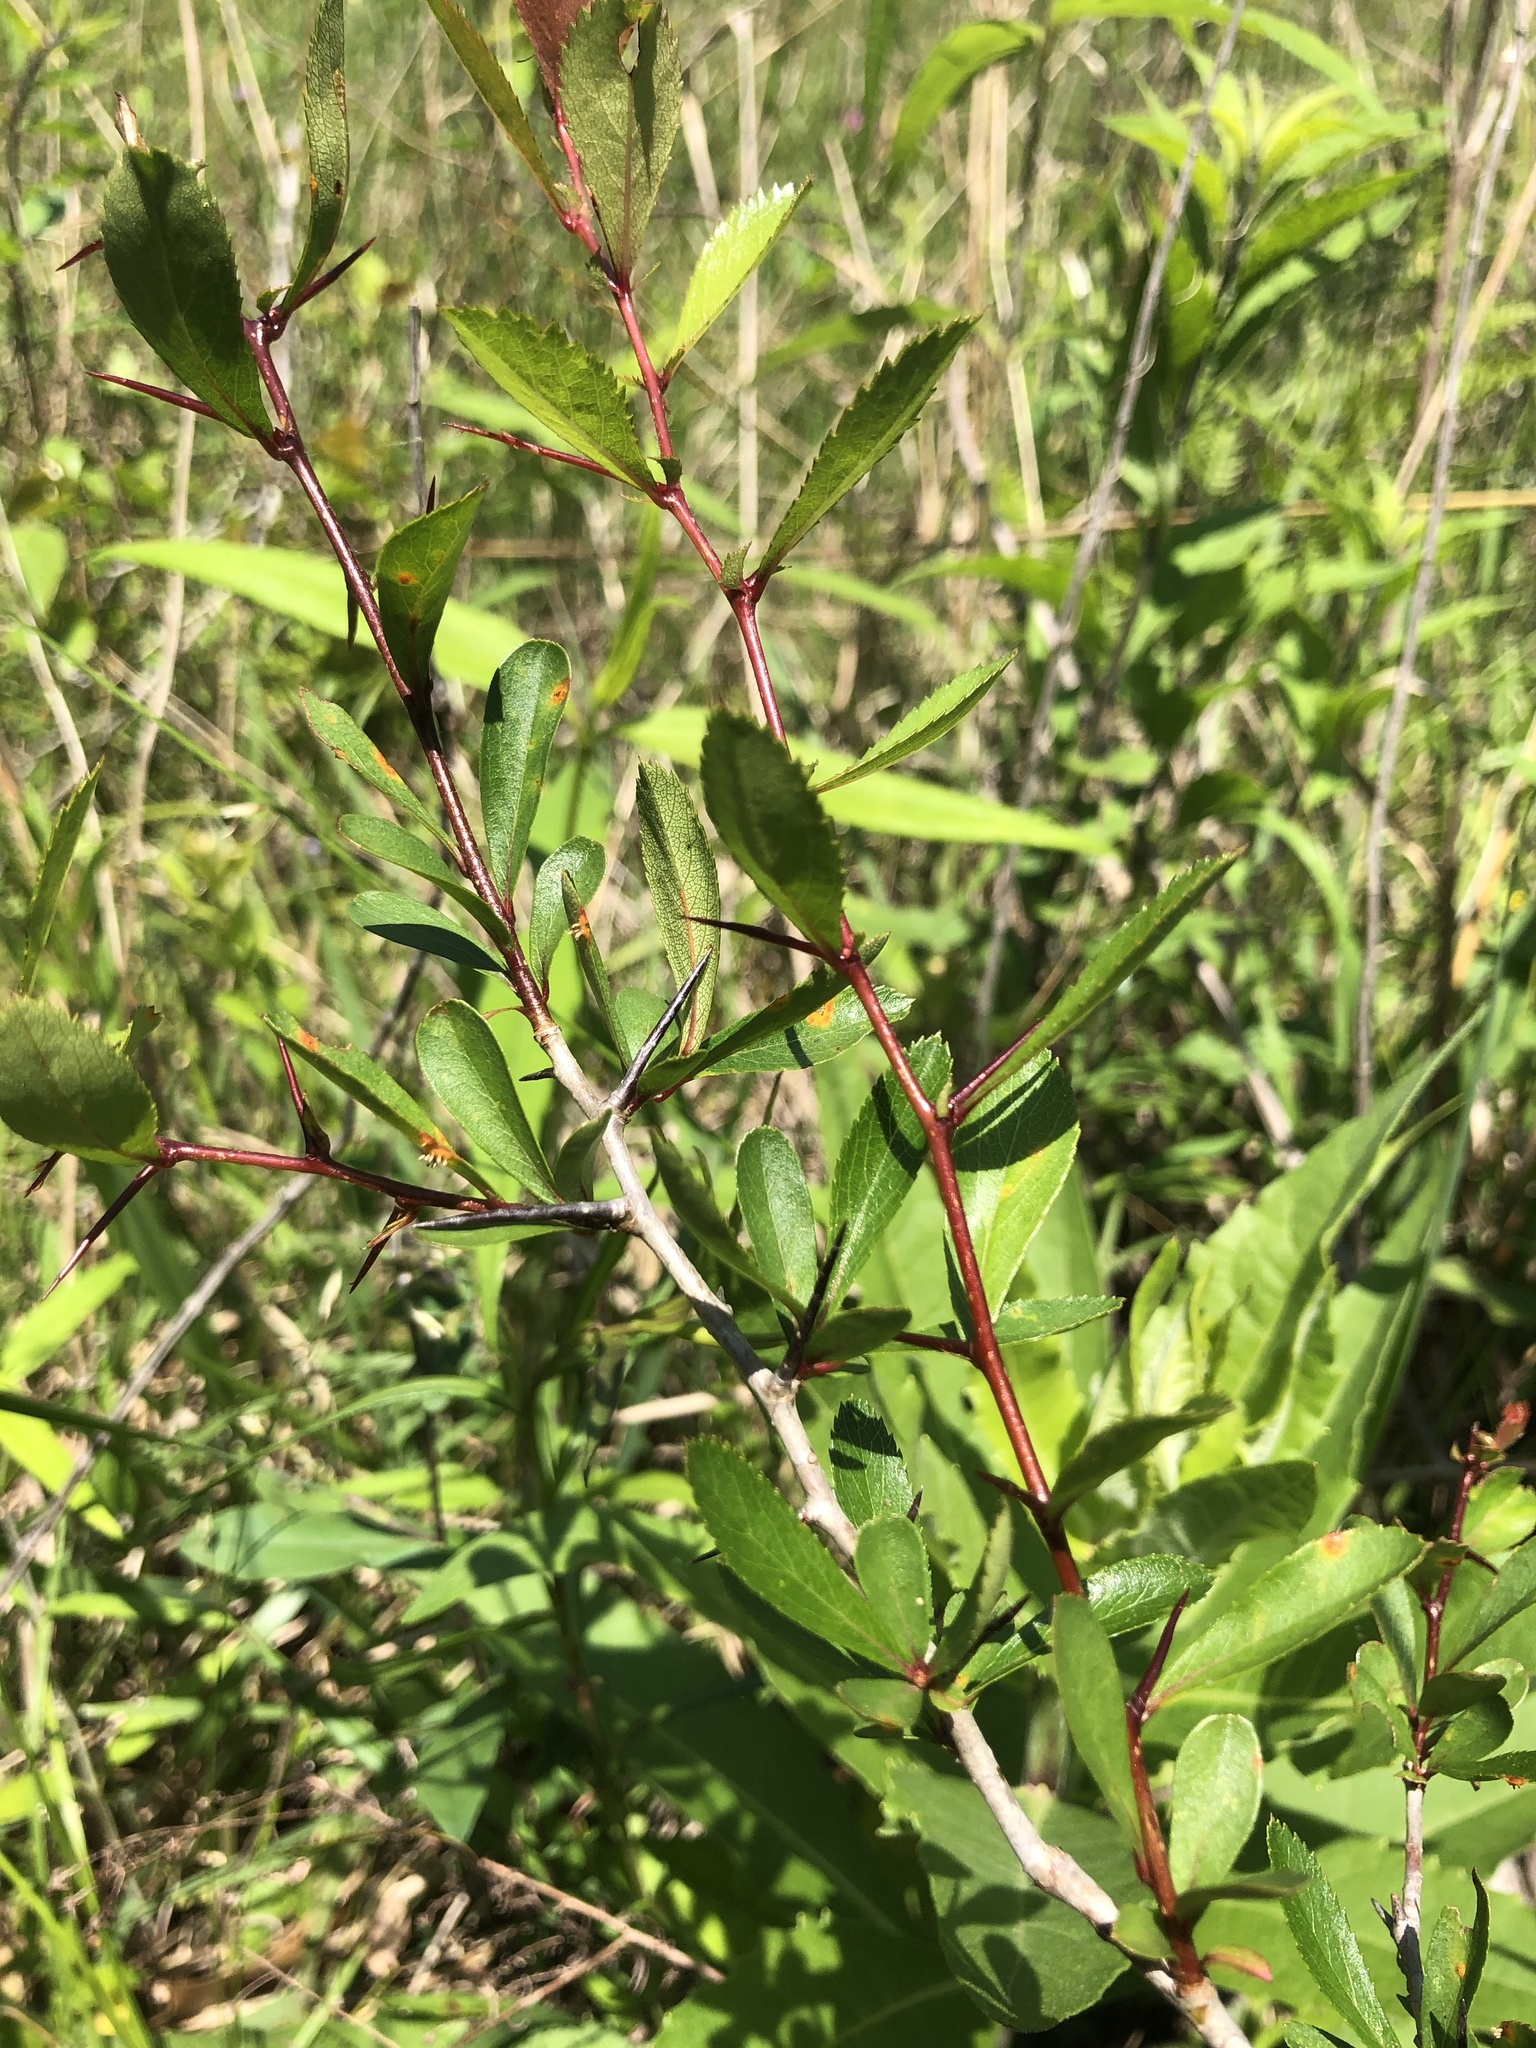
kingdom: Plantae
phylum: Tracheophyta
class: Magnoliopsida
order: Rosales
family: Rosaceae
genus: Crataegus
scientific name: Crataegus crus-galli
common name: Cockspurthorn
